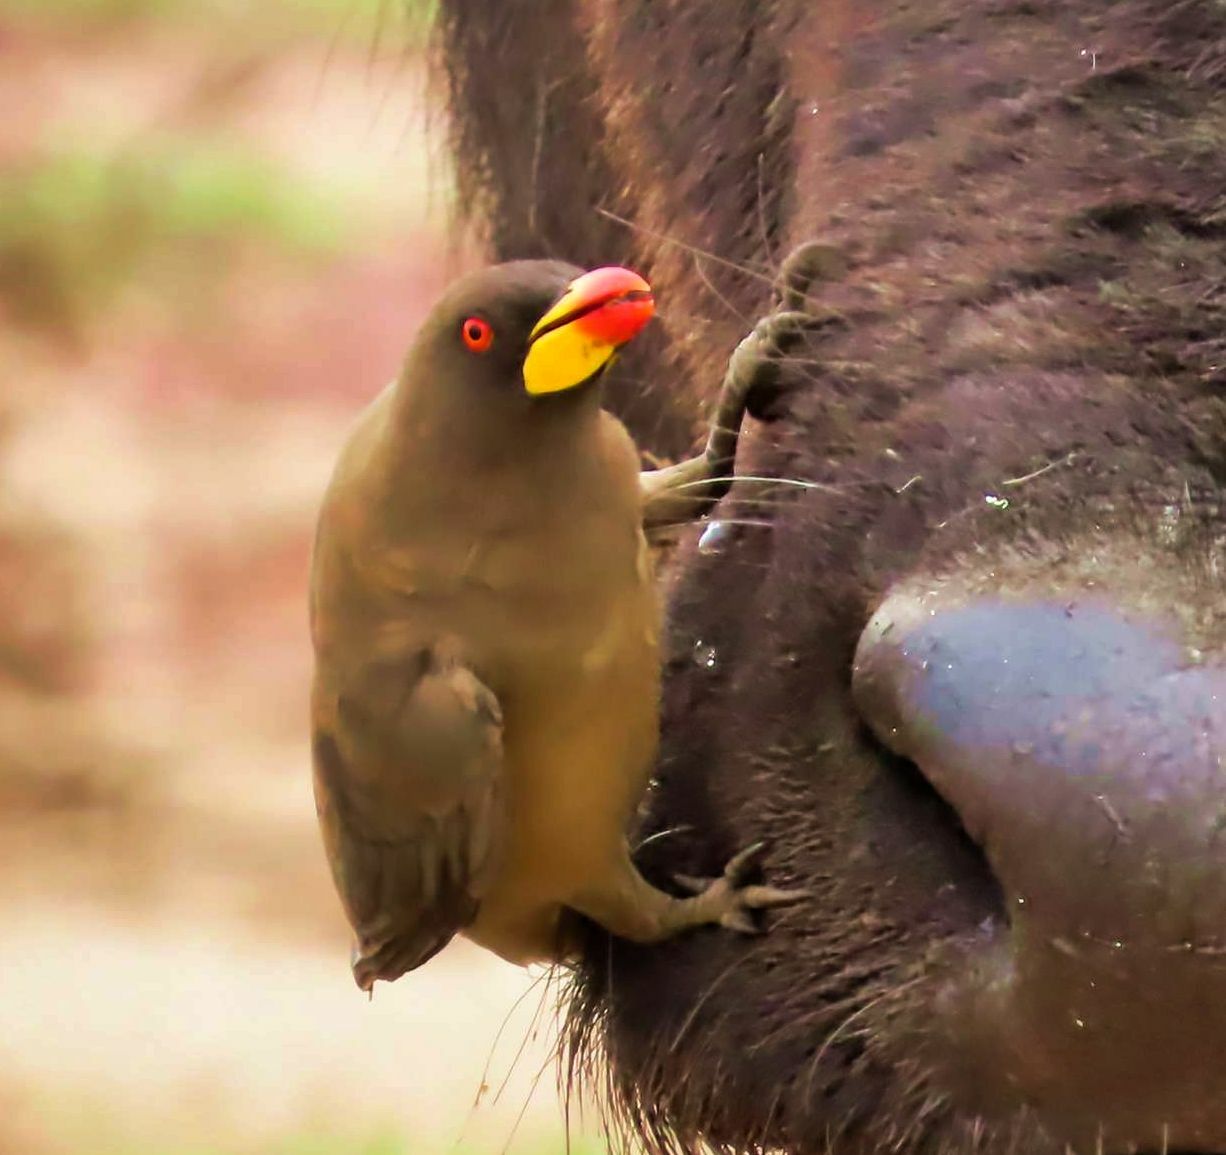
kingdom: Animalia
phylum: Chordata
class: Aves
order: Passeriformes
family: Buphagidae
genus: Buphagus
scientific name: Buphagus africanus
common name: Yellow-billed oxpecker
